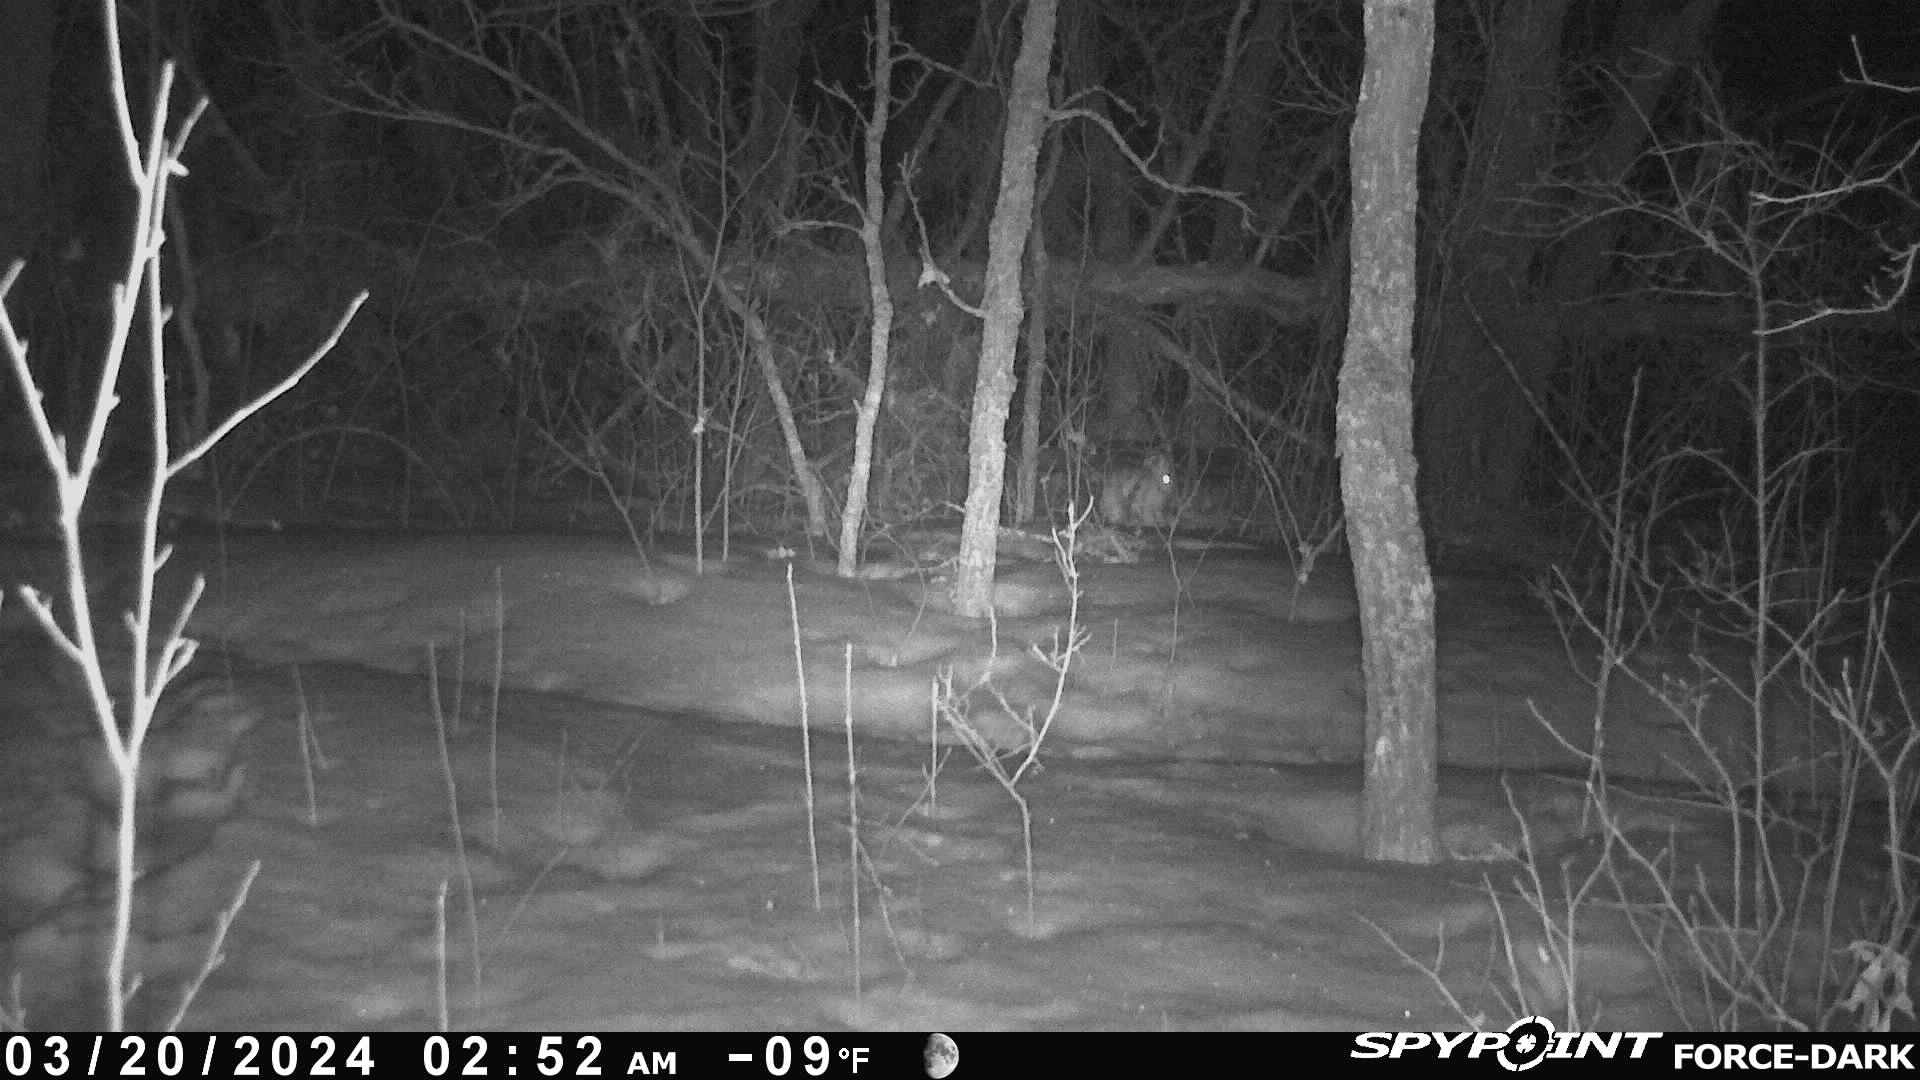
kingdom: Animalia
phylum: Chordata
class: Mammalia
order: Lagomorpha
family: Leporidae
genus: Lepus
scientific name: Lepus americanus
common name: Snowshoe hare
